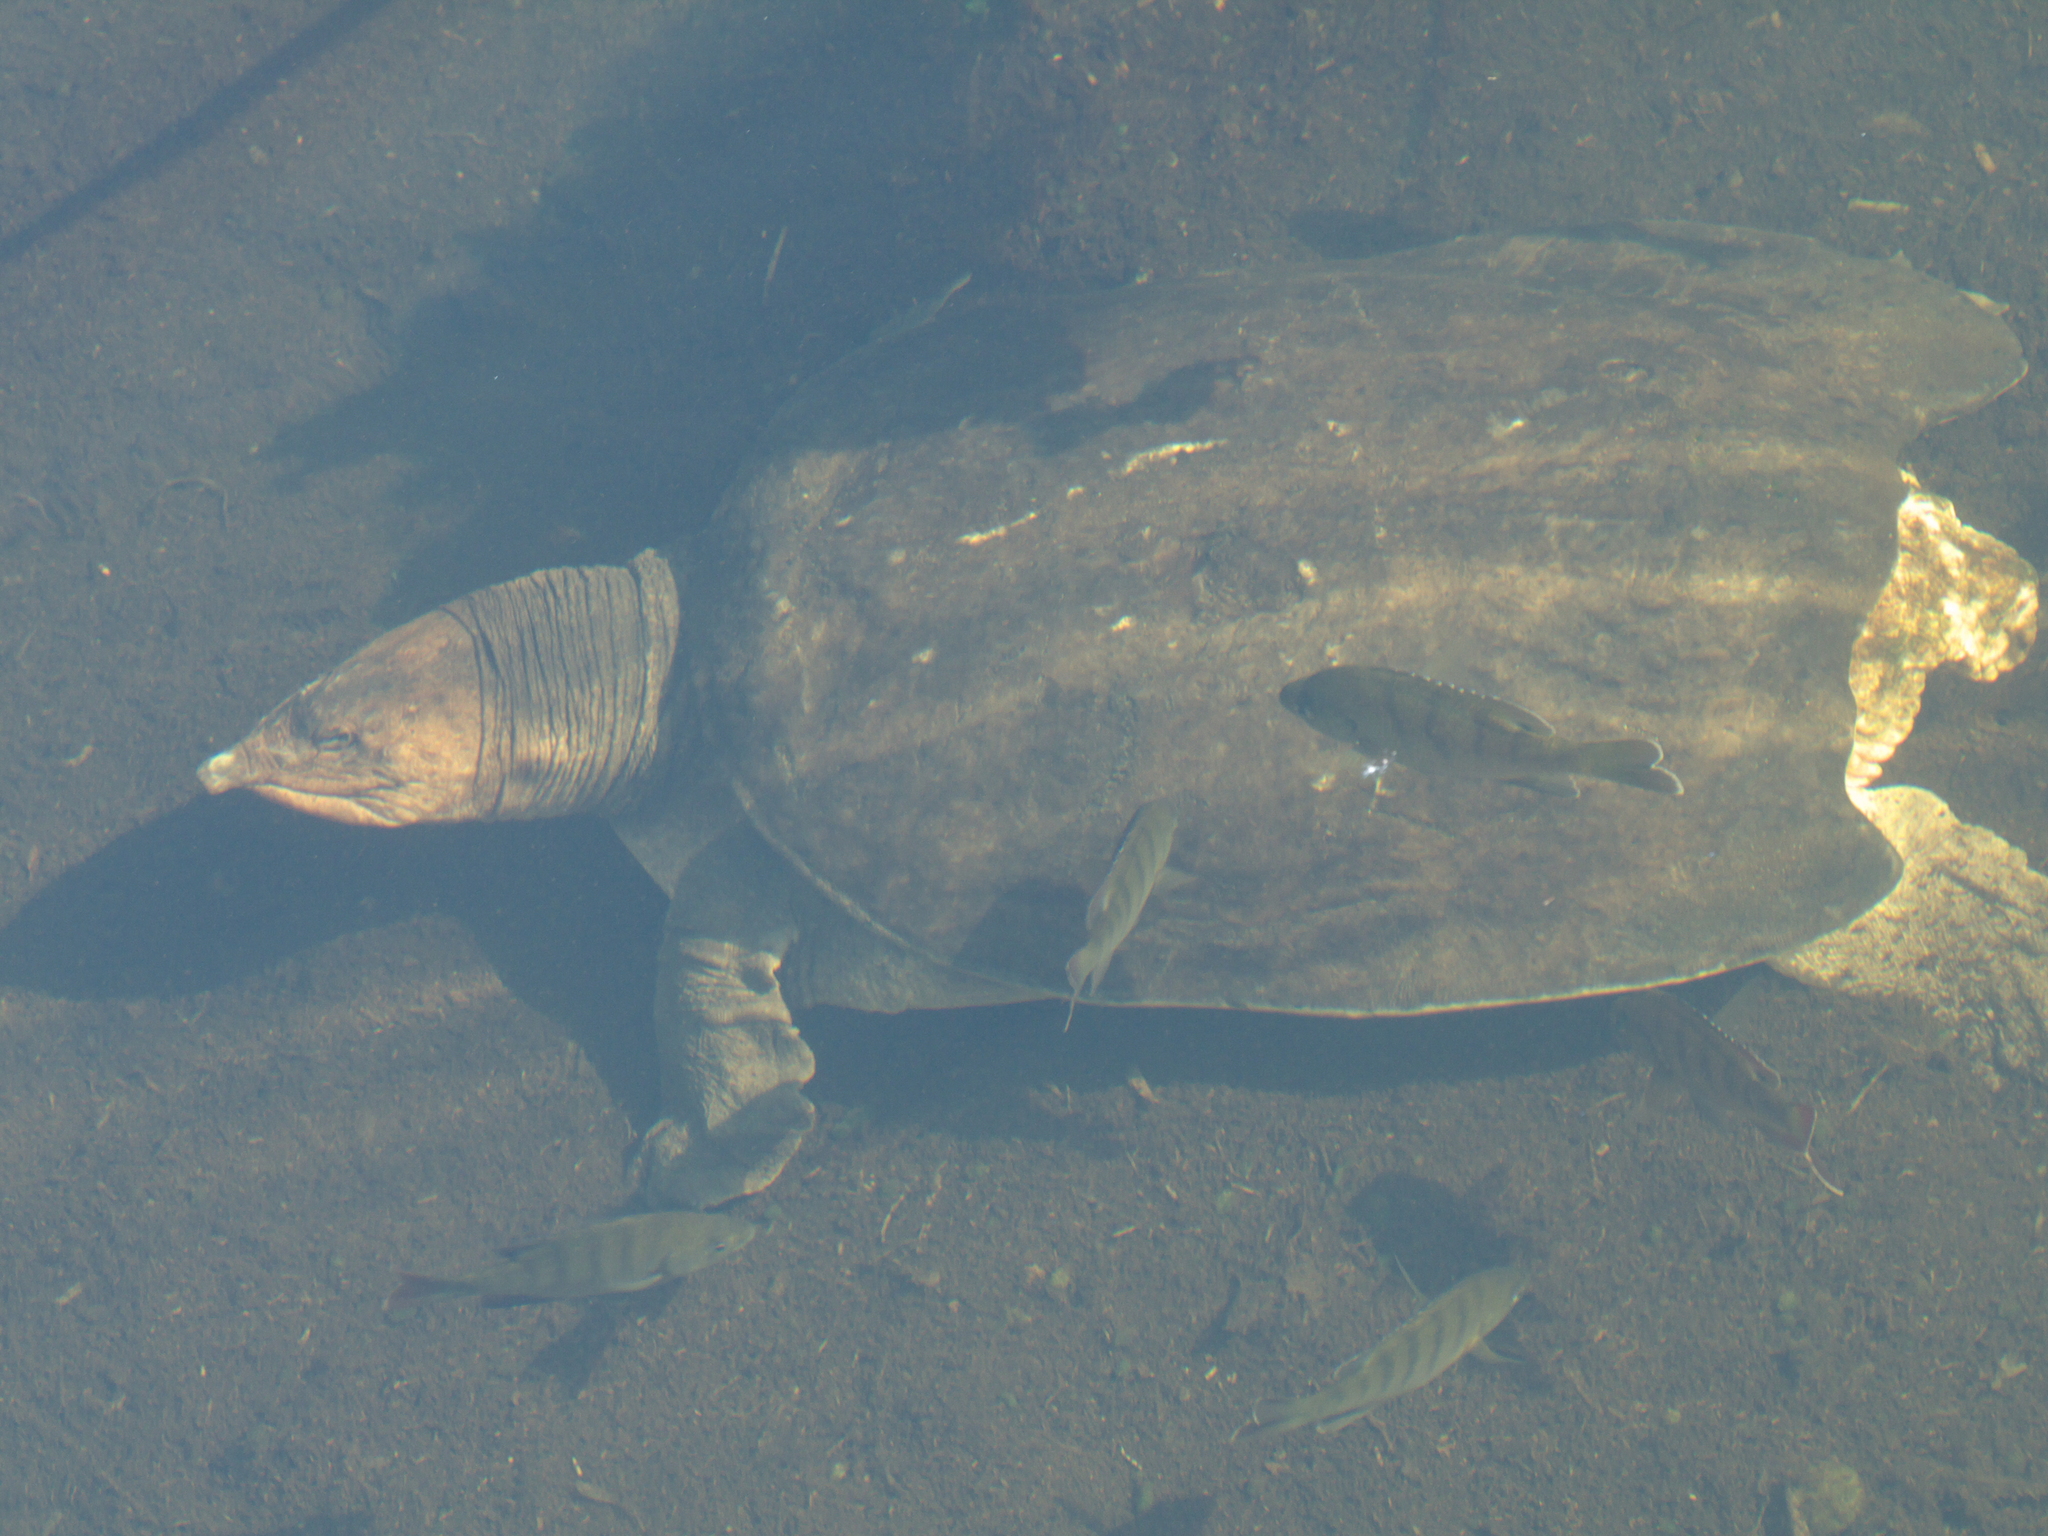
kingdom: Animalia
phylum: Chordata
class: Testudines
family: Trionychidae
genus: Apalone
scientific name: Apalone ferox
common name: Florida softshell turtle
